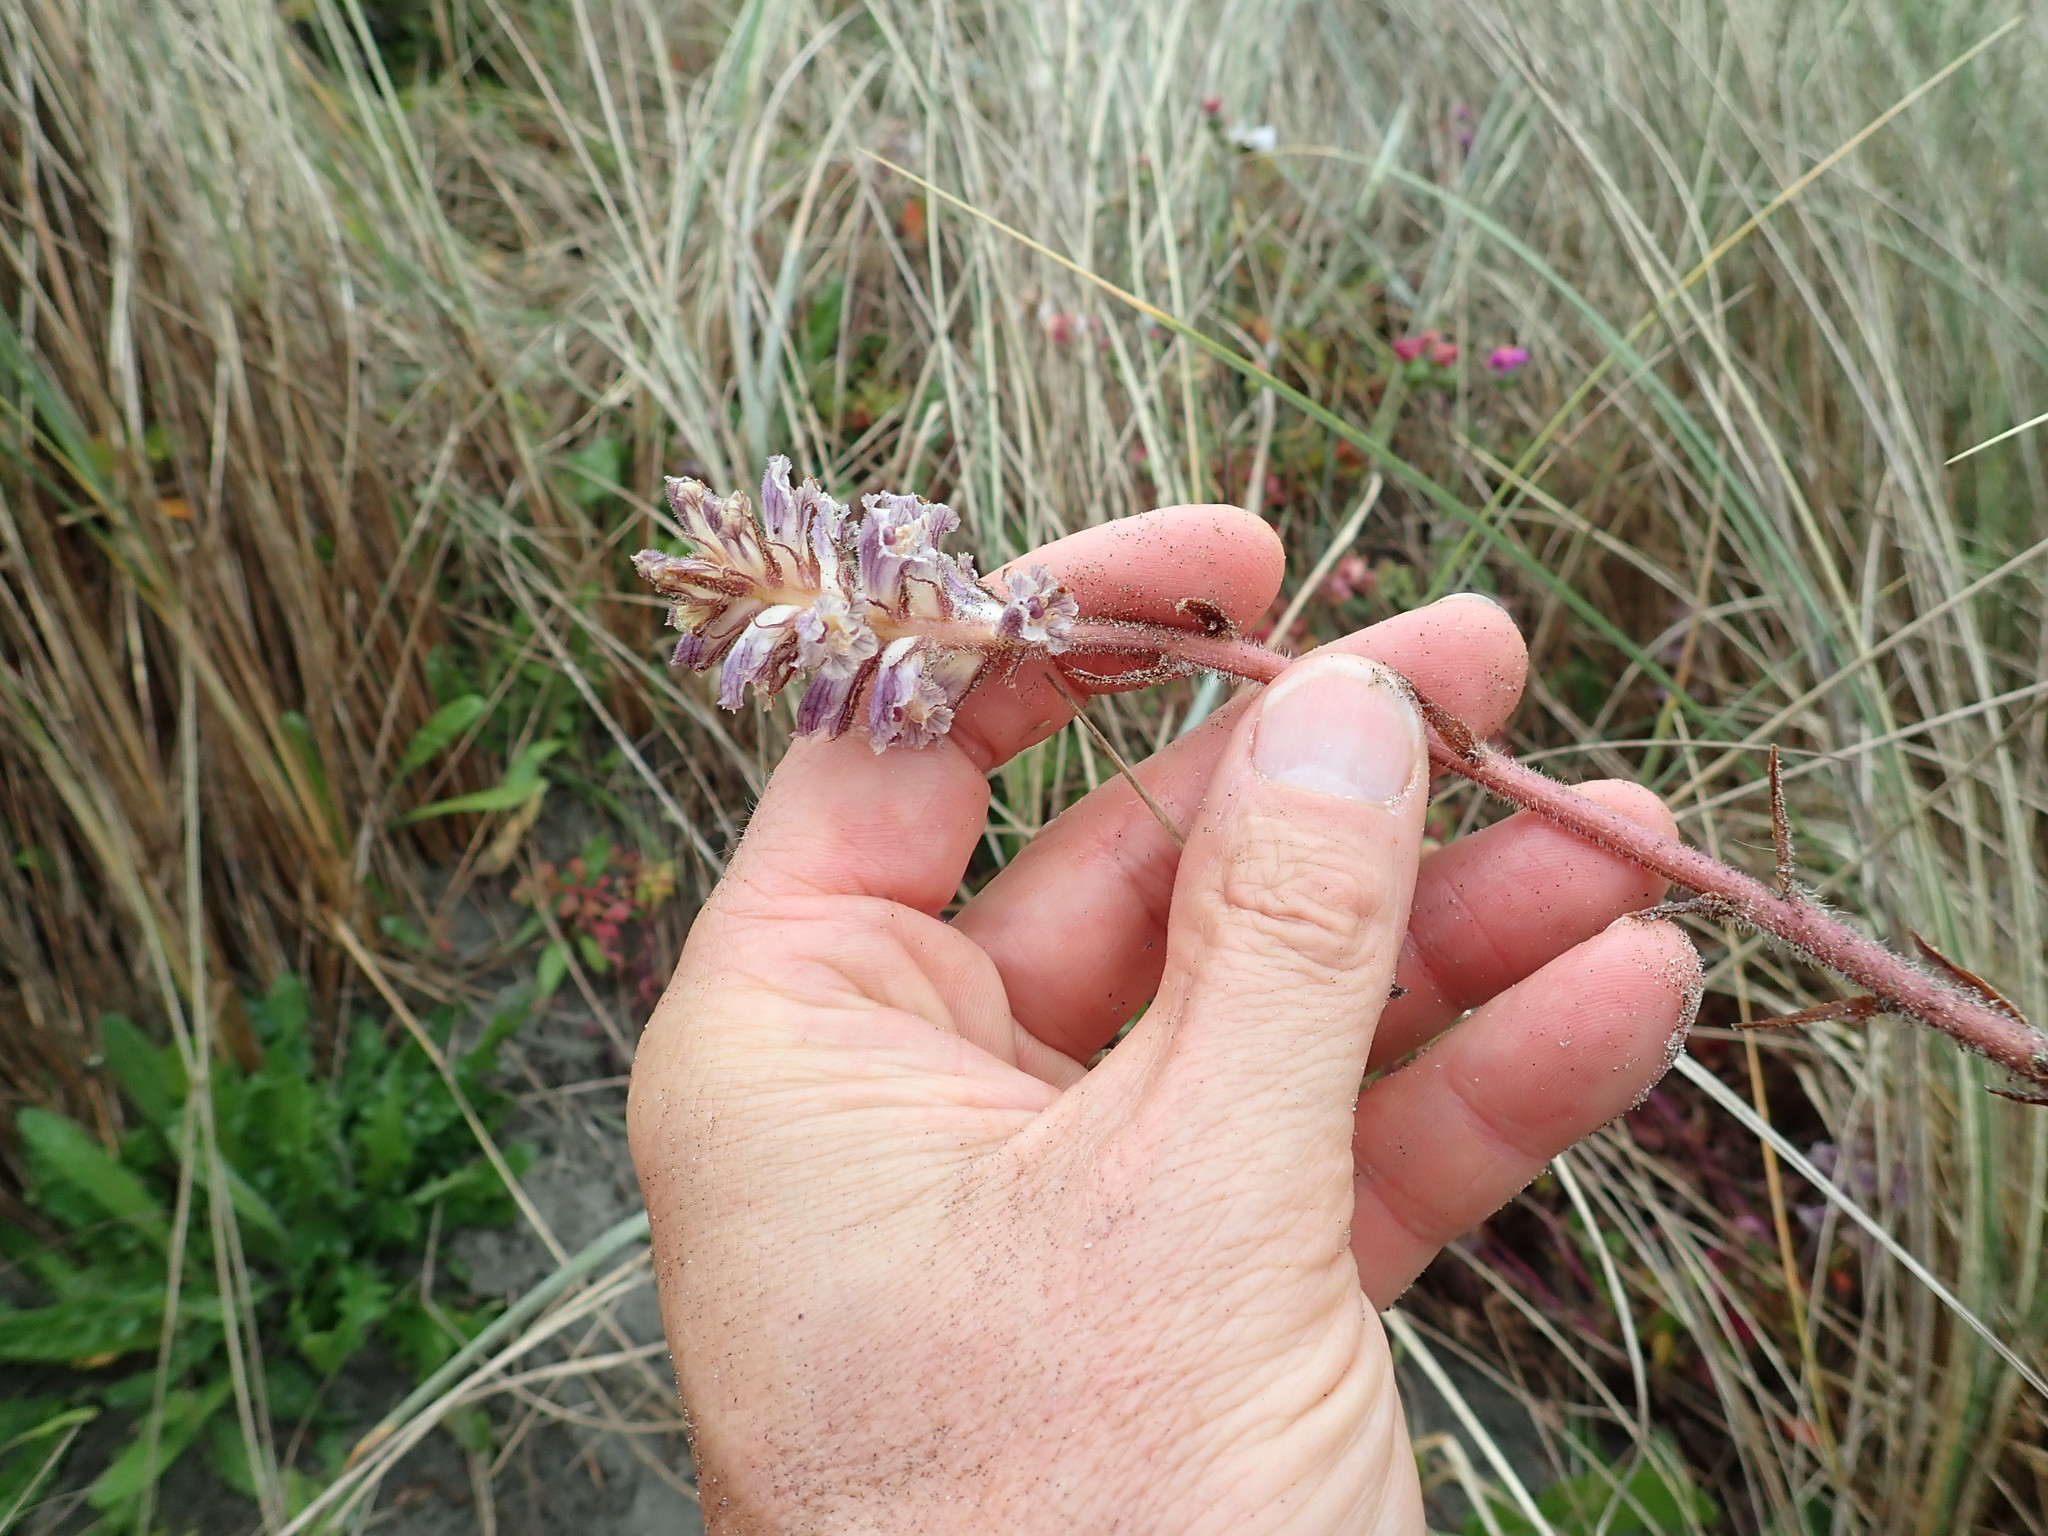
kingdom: Plantae
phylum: Tracheophyta
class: Magnoliopsida
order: Lamiales
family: Orobanchaceae
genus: Orobanche
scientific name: Orobanche minor
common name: Common broomrape
